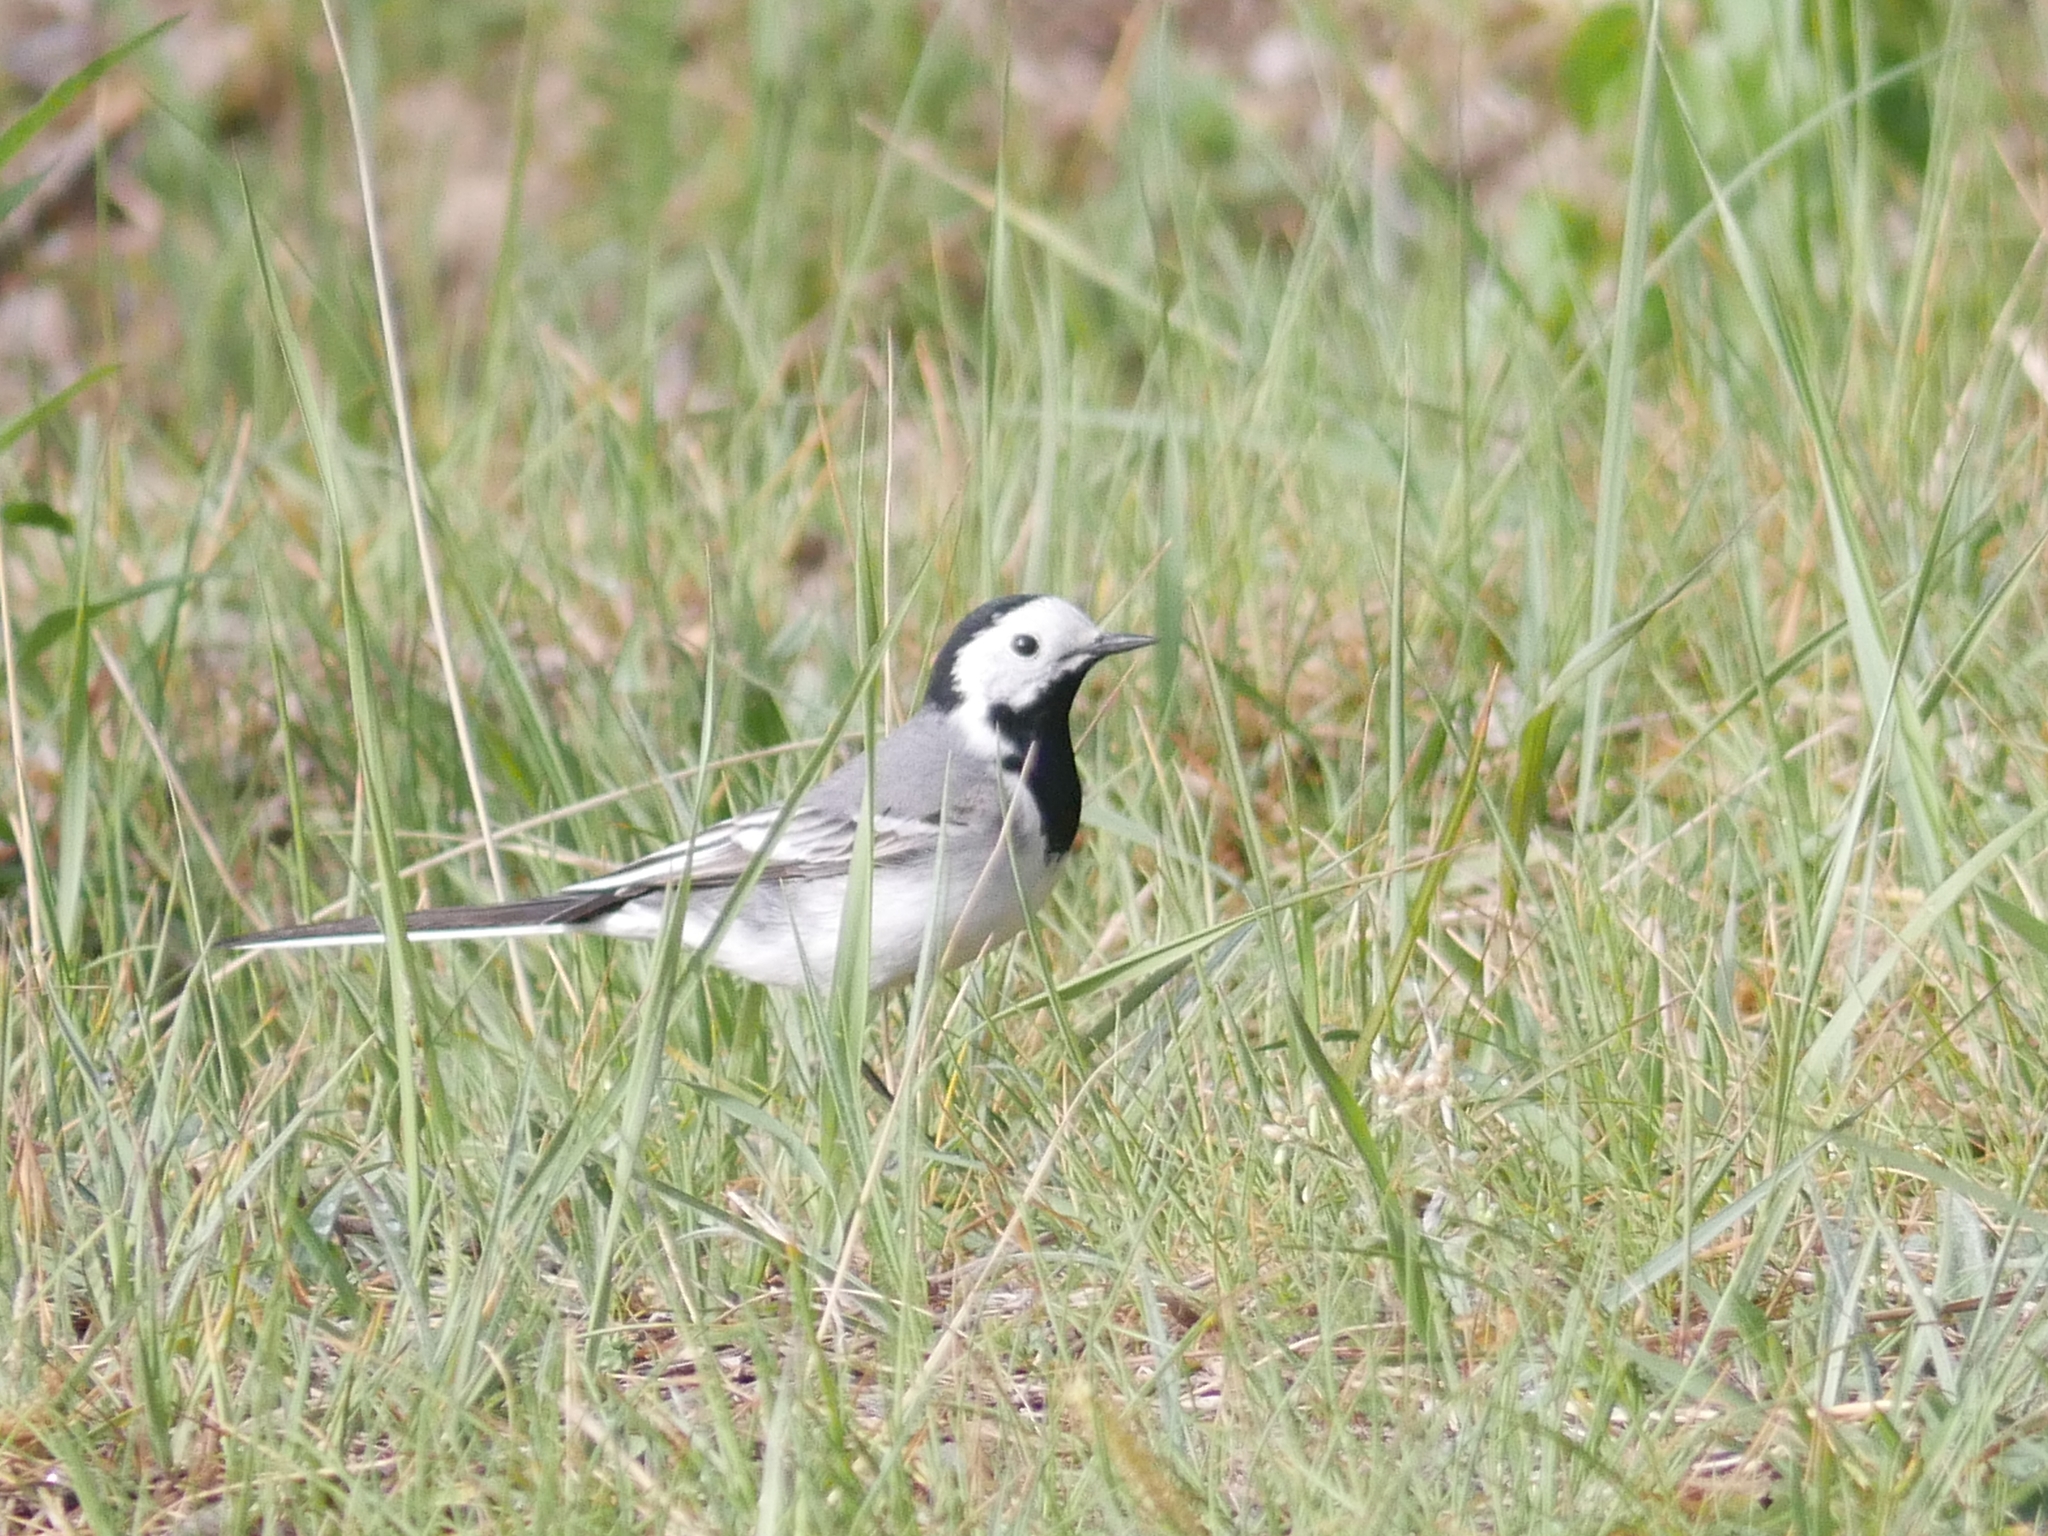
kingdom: Animalia
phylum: Chordata
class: Aves
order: Passeriformes
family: Motacillidae
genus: Motacilla
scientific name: Motacilla alba
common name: White wagtail
